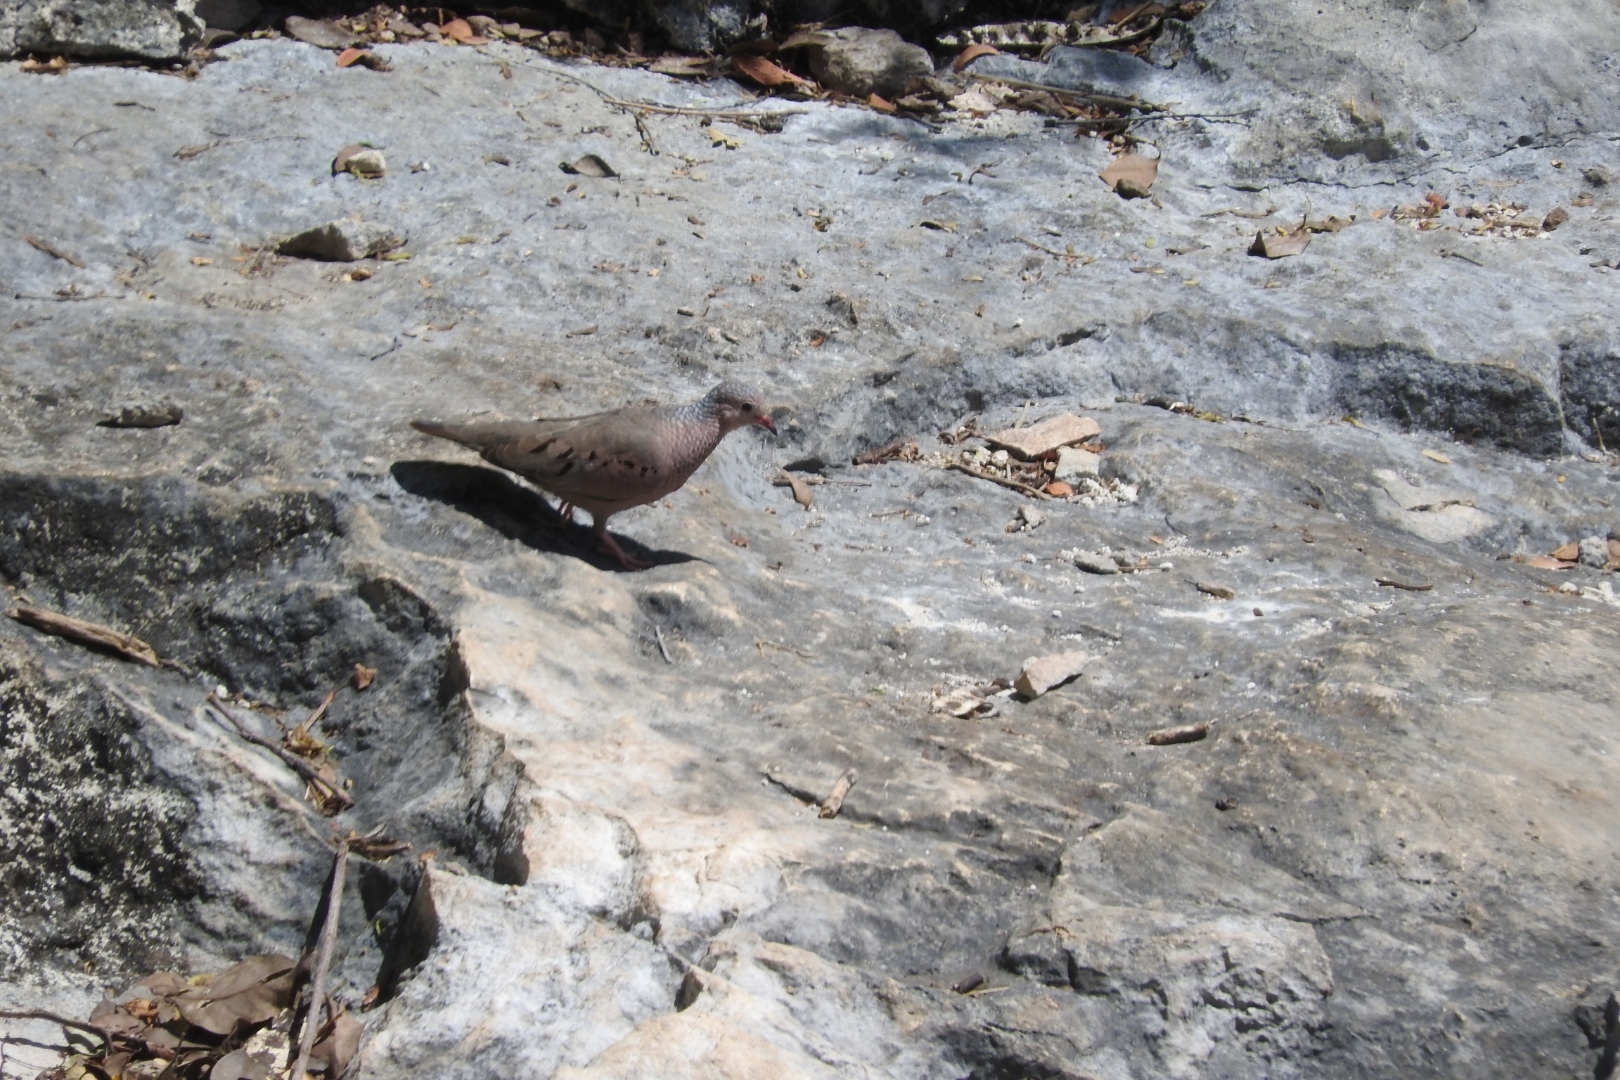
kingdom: Animalia
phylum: Chordata
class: Aves
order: Columbiformes
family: Columbidae
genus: Columbina
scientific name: Columbina passerina
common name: Common ground-dove
